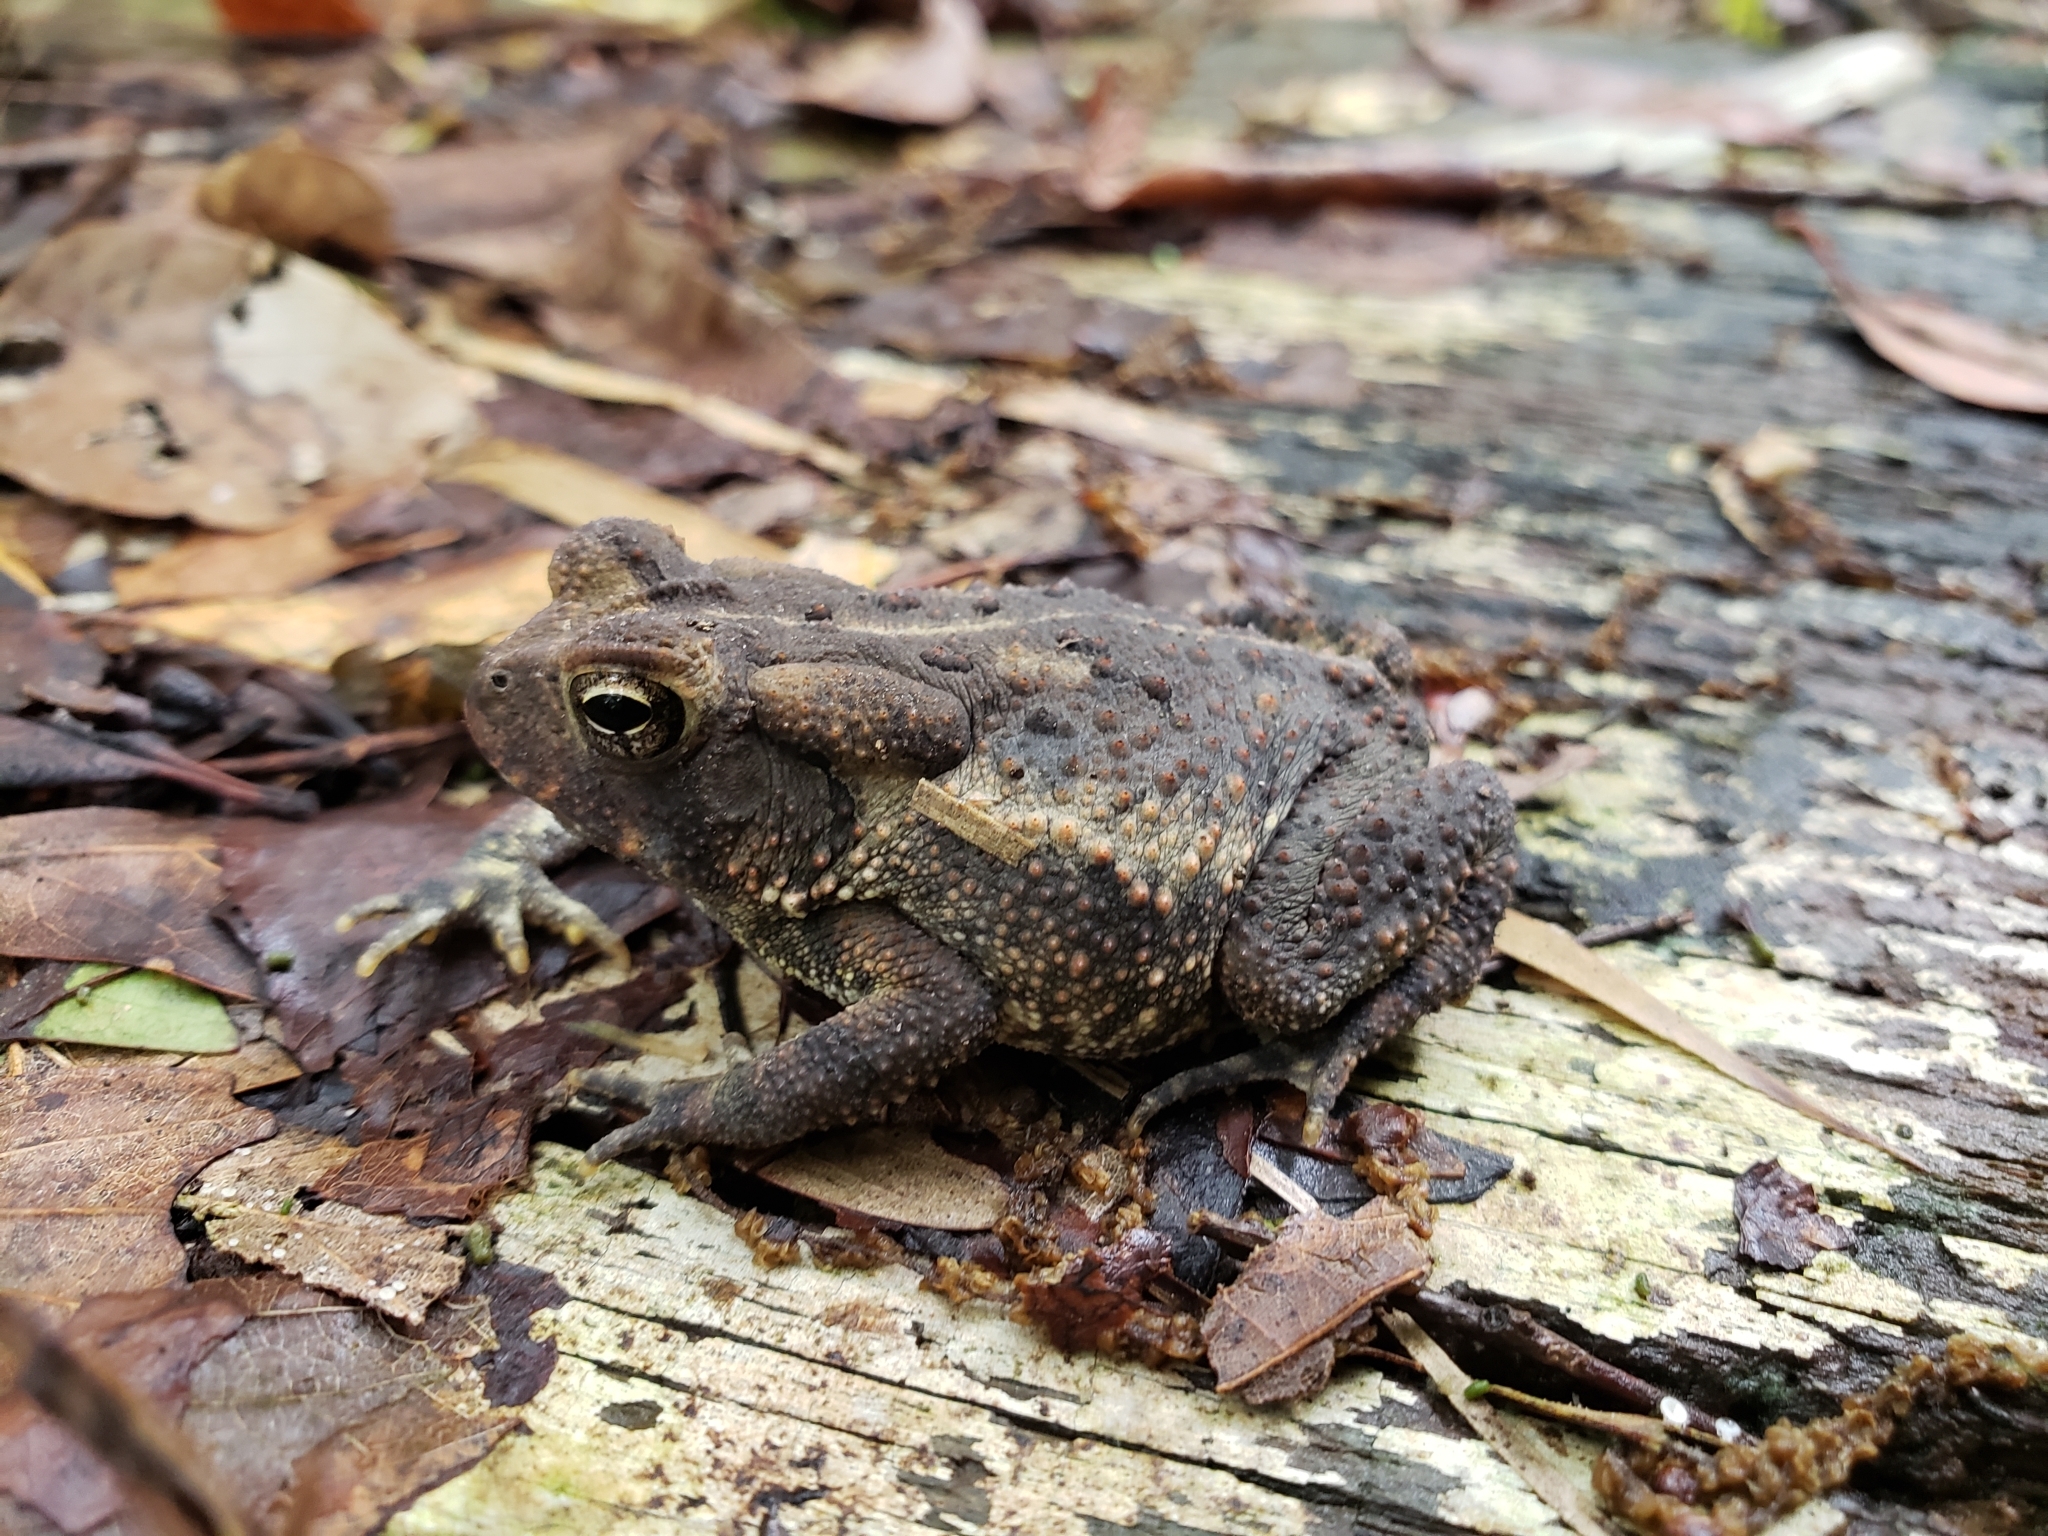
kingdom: Animalia
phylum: Chordata
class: Amphibia
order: Anura
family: Bufonidae
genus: Anaxyrus
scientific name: Anaxyrus americanus
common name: American toad
